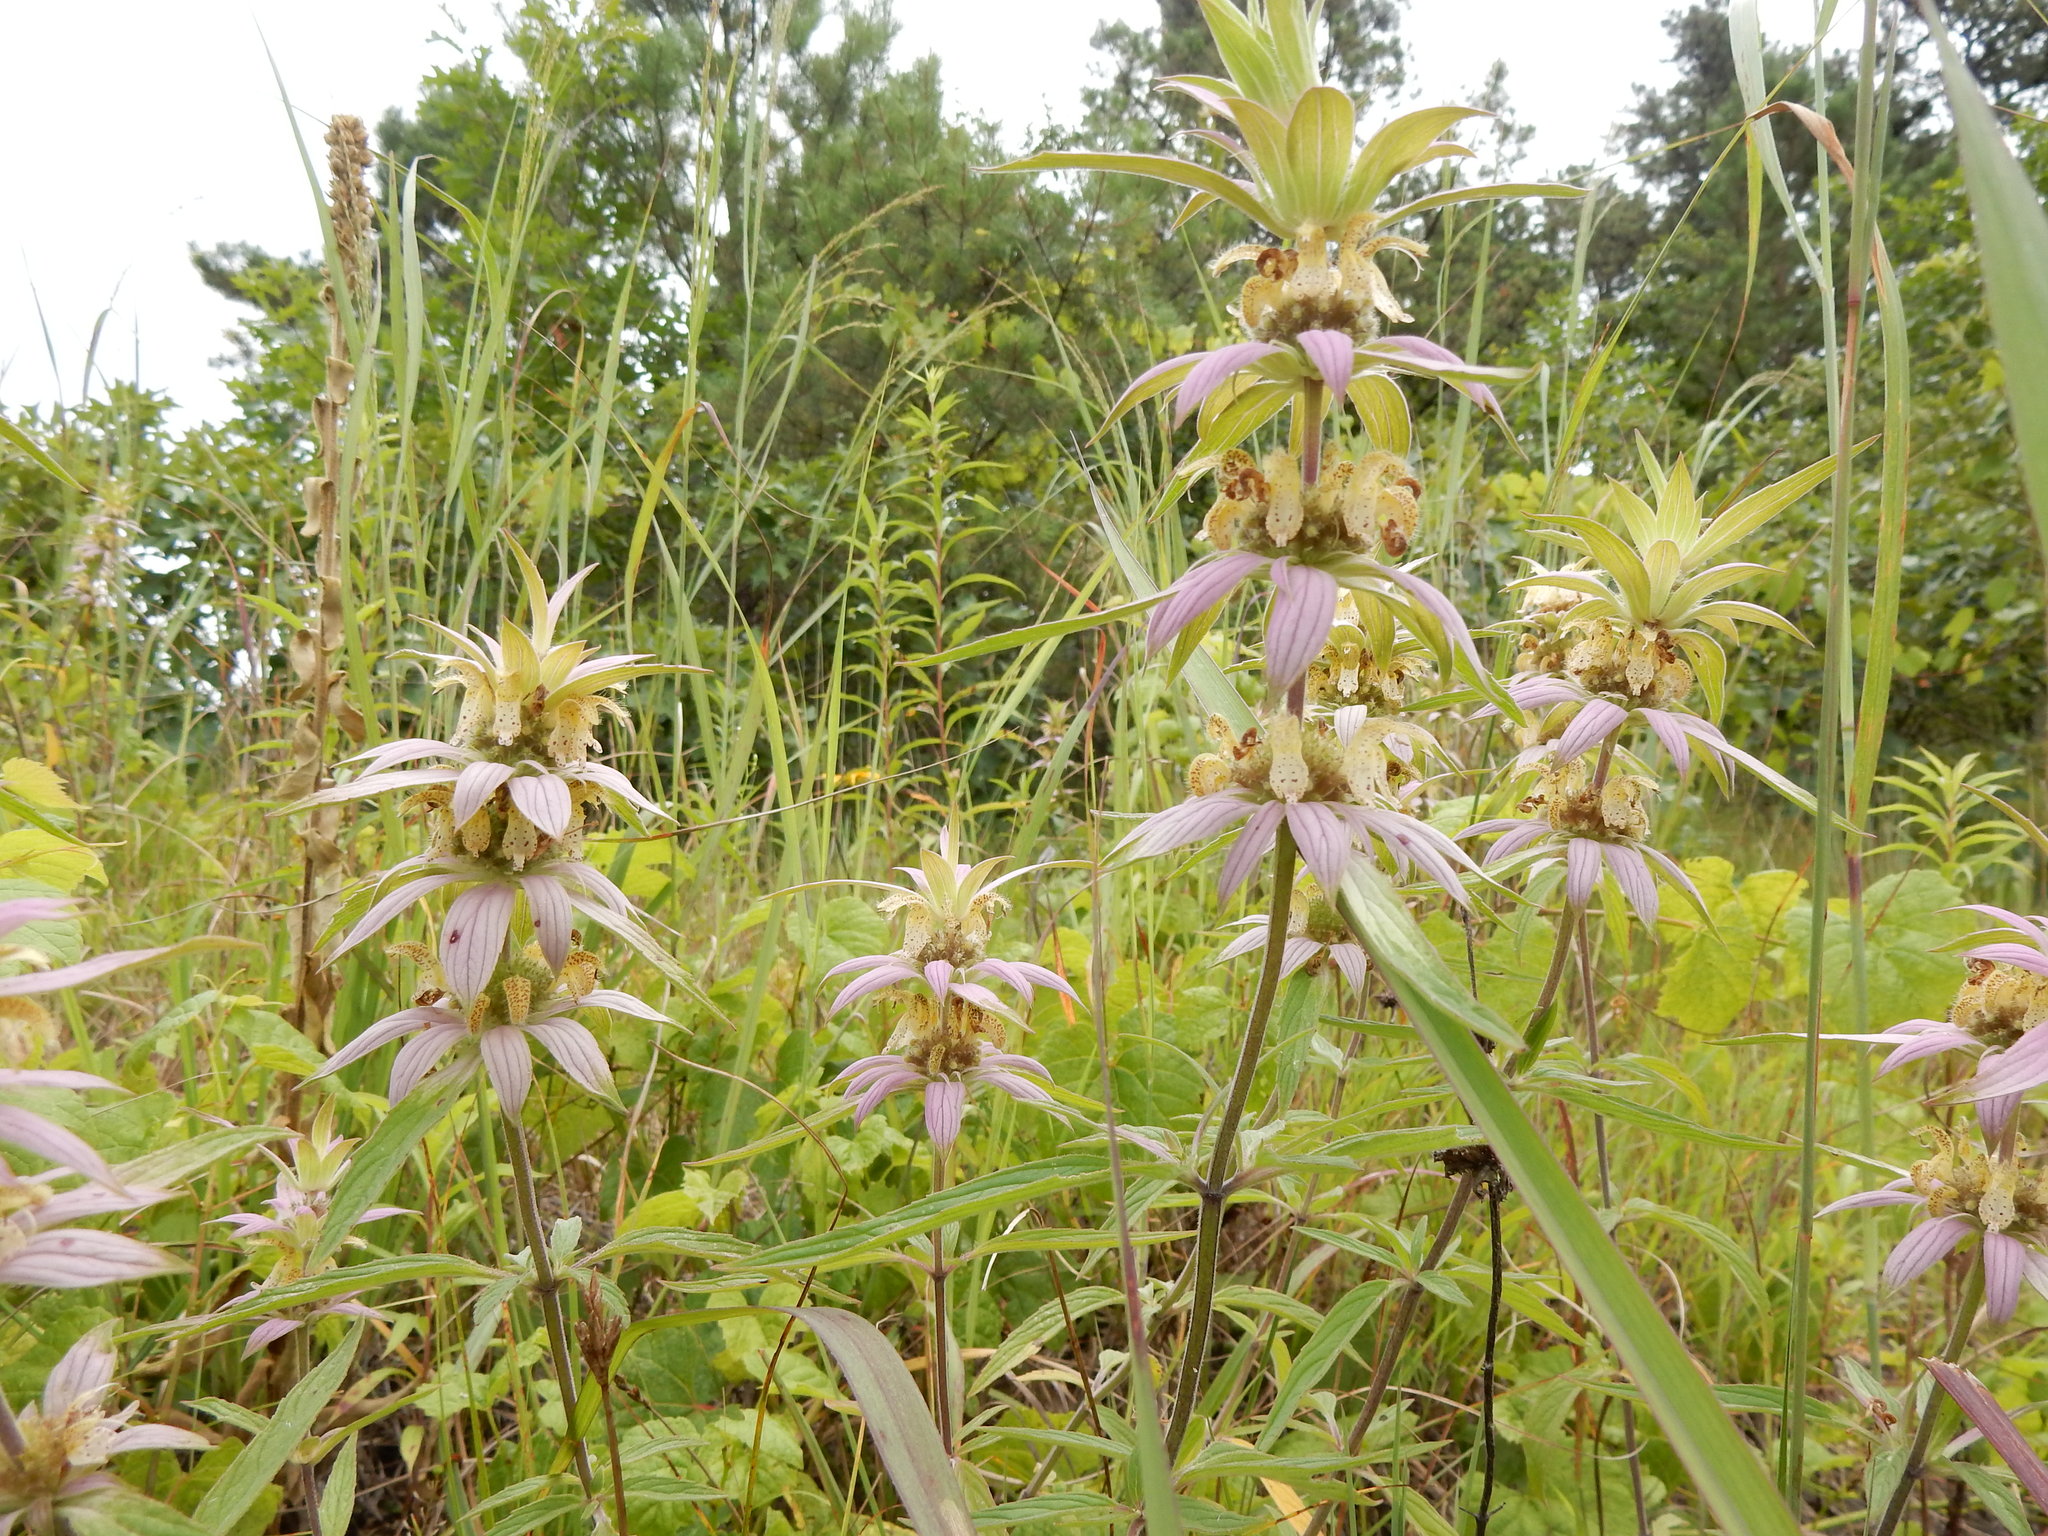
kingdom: Plantae
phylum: Tracheophyta
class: Magnoliopsida
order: Lamiales
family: Lamiaceae
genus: Monarda
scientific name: Monarda punctata
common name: Dotted monarda
